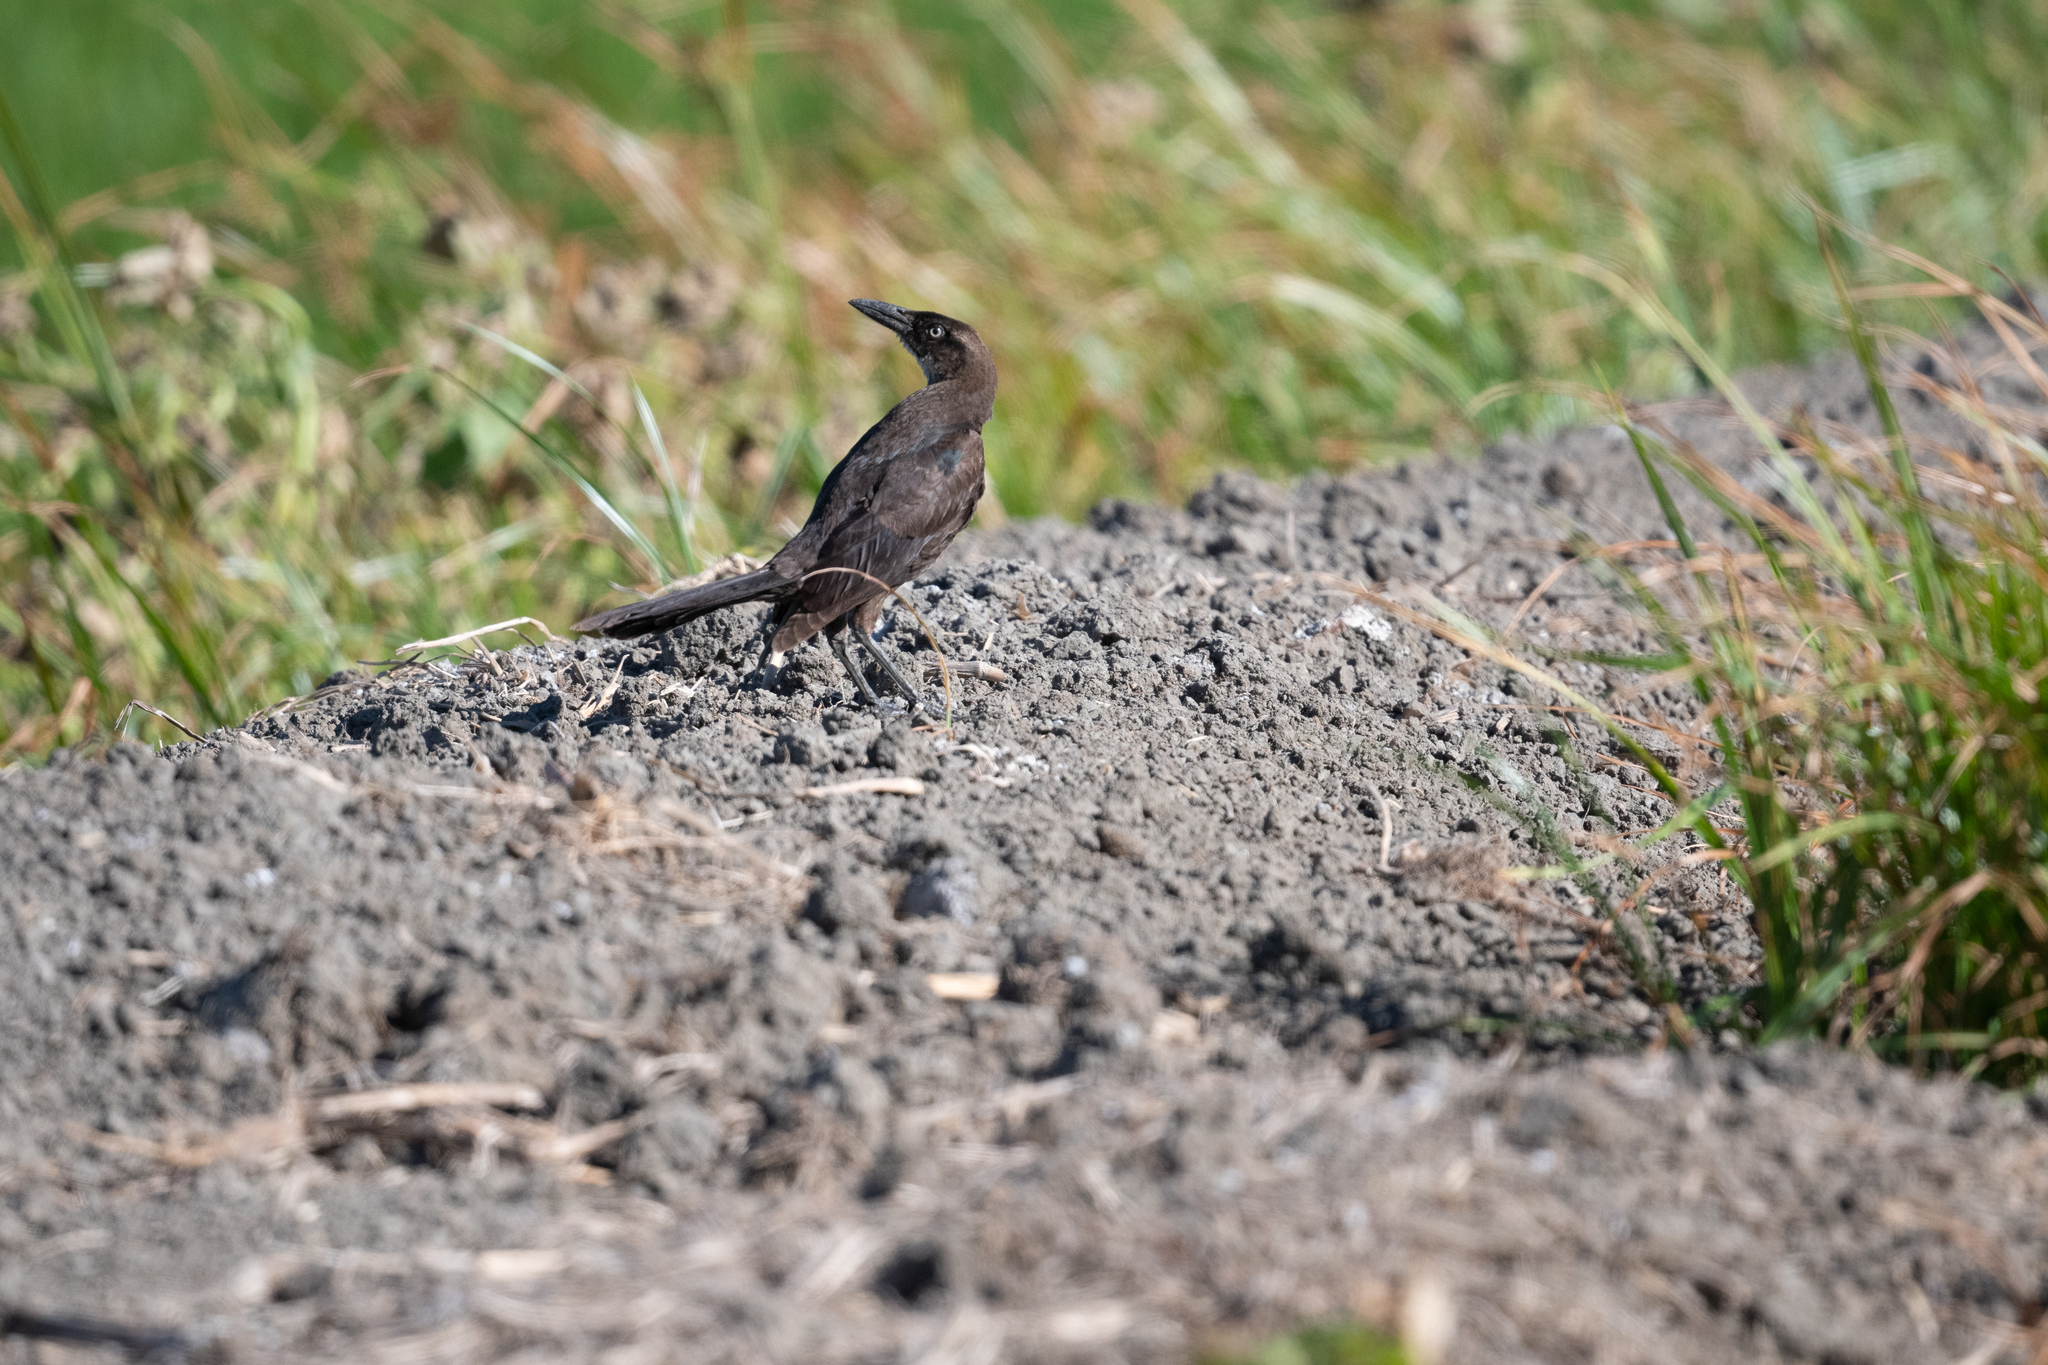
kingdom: Animalia
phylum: Chordata
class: Aves
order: Passeriformes
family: Icteridae
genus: Quiscalus
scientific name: Quiscalus mexicanus
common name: Great-tailed grackle
